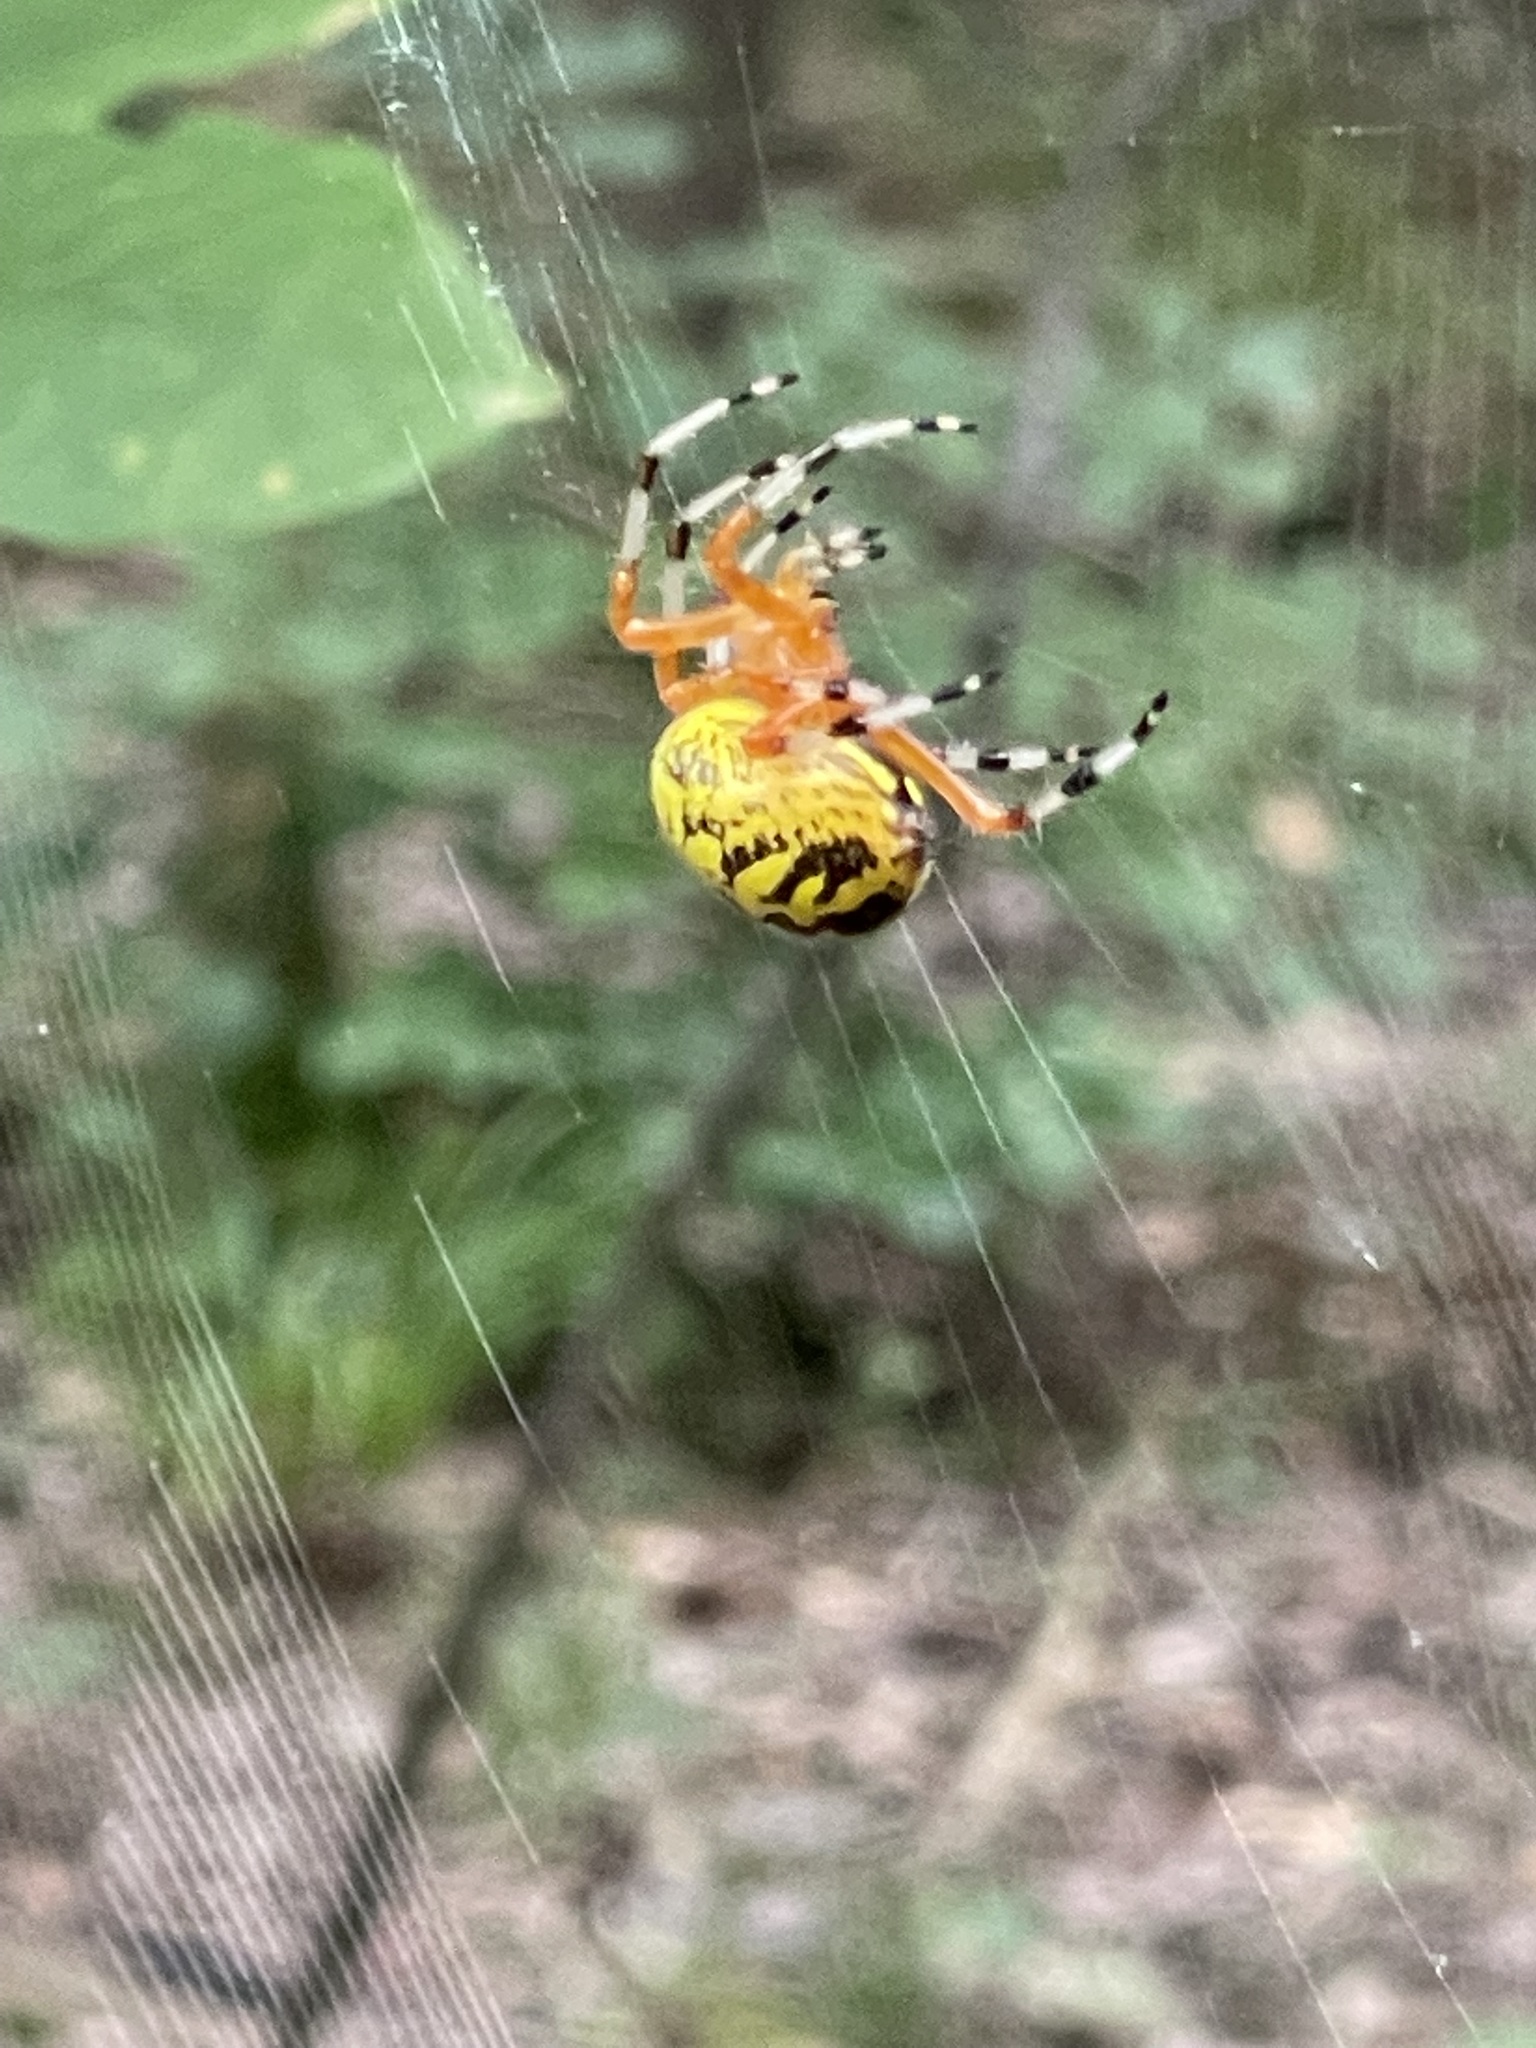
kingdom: Animalia
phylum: Arthropoda
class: Arachnida
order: Araneae
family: Araneidae
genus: Araneus
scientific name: Araneus marmoreus
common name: Marbled orbweaver
